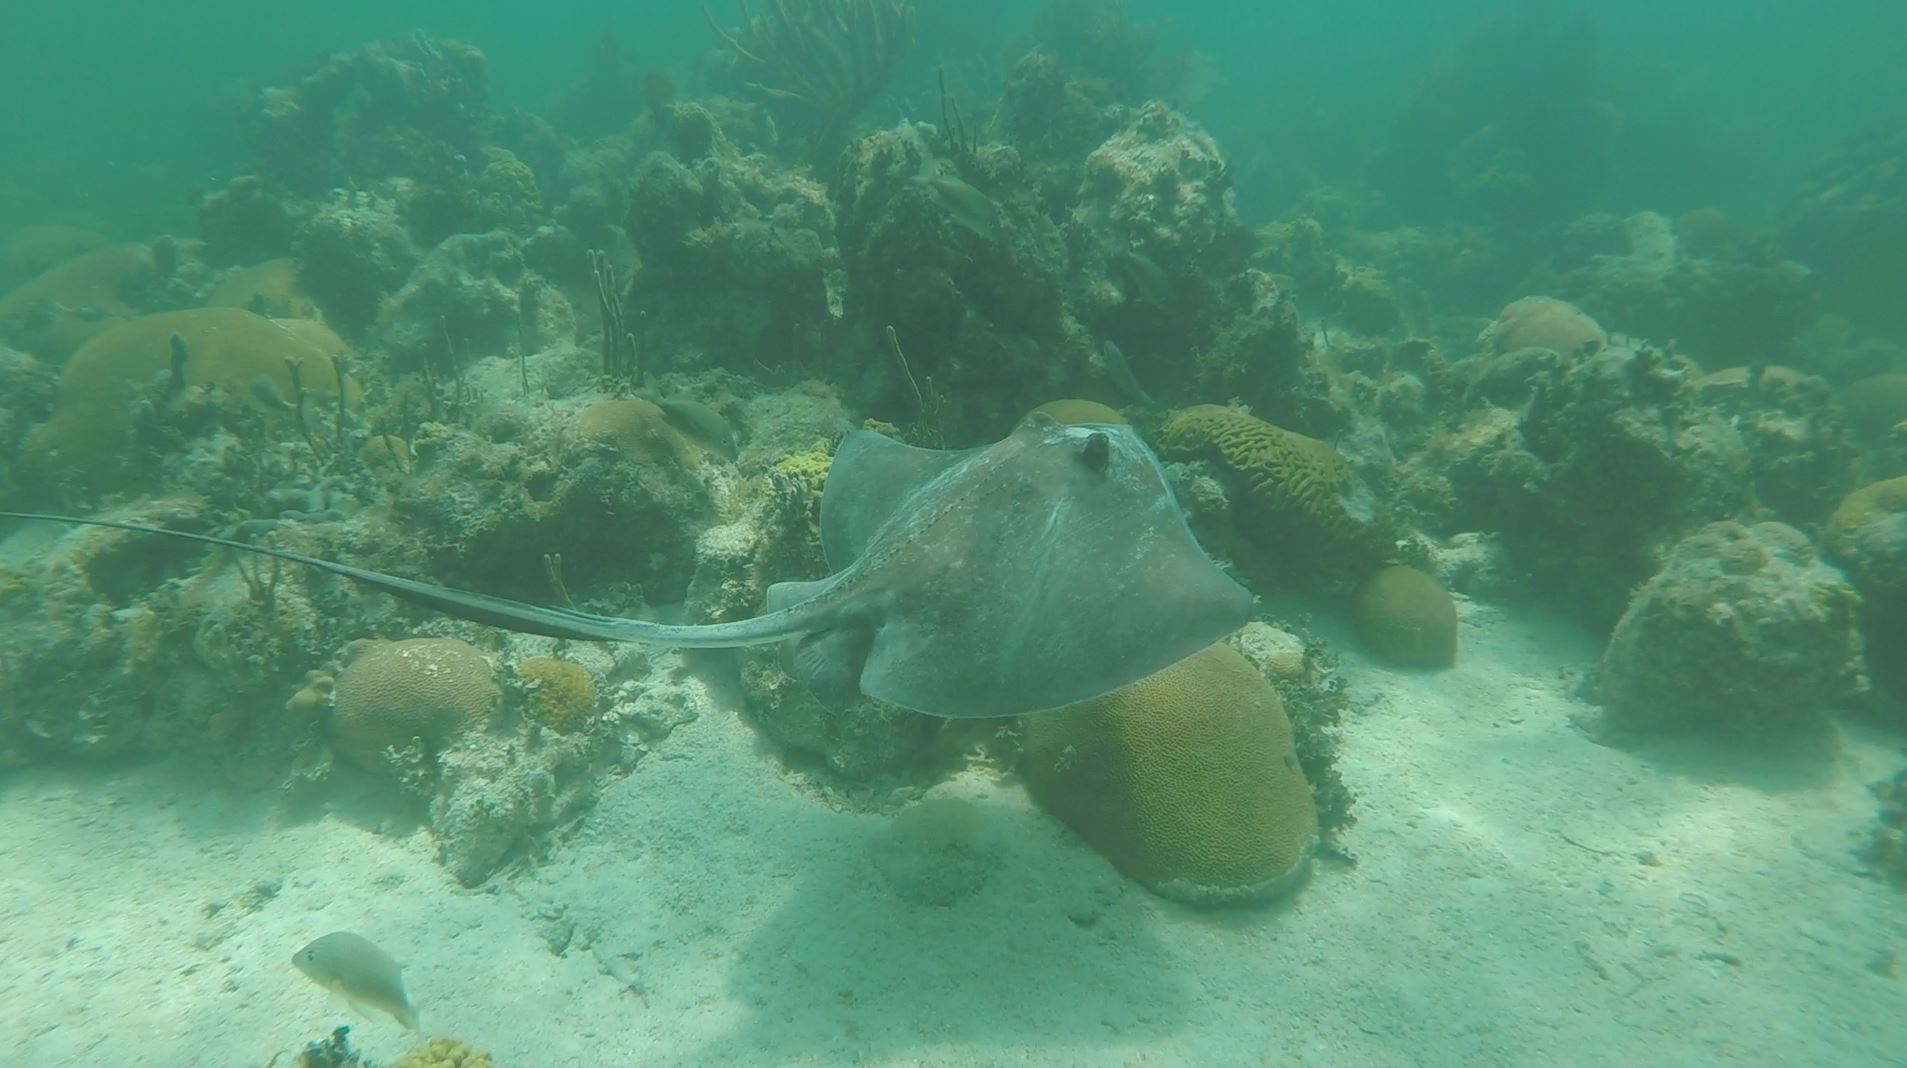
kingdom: Animalia
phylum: Chordata
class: Elasmobranchii
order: Myliobatiformes
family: Dasyatidae
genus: Hypanus
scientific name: Hypanus americanus
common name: Southern stingray
